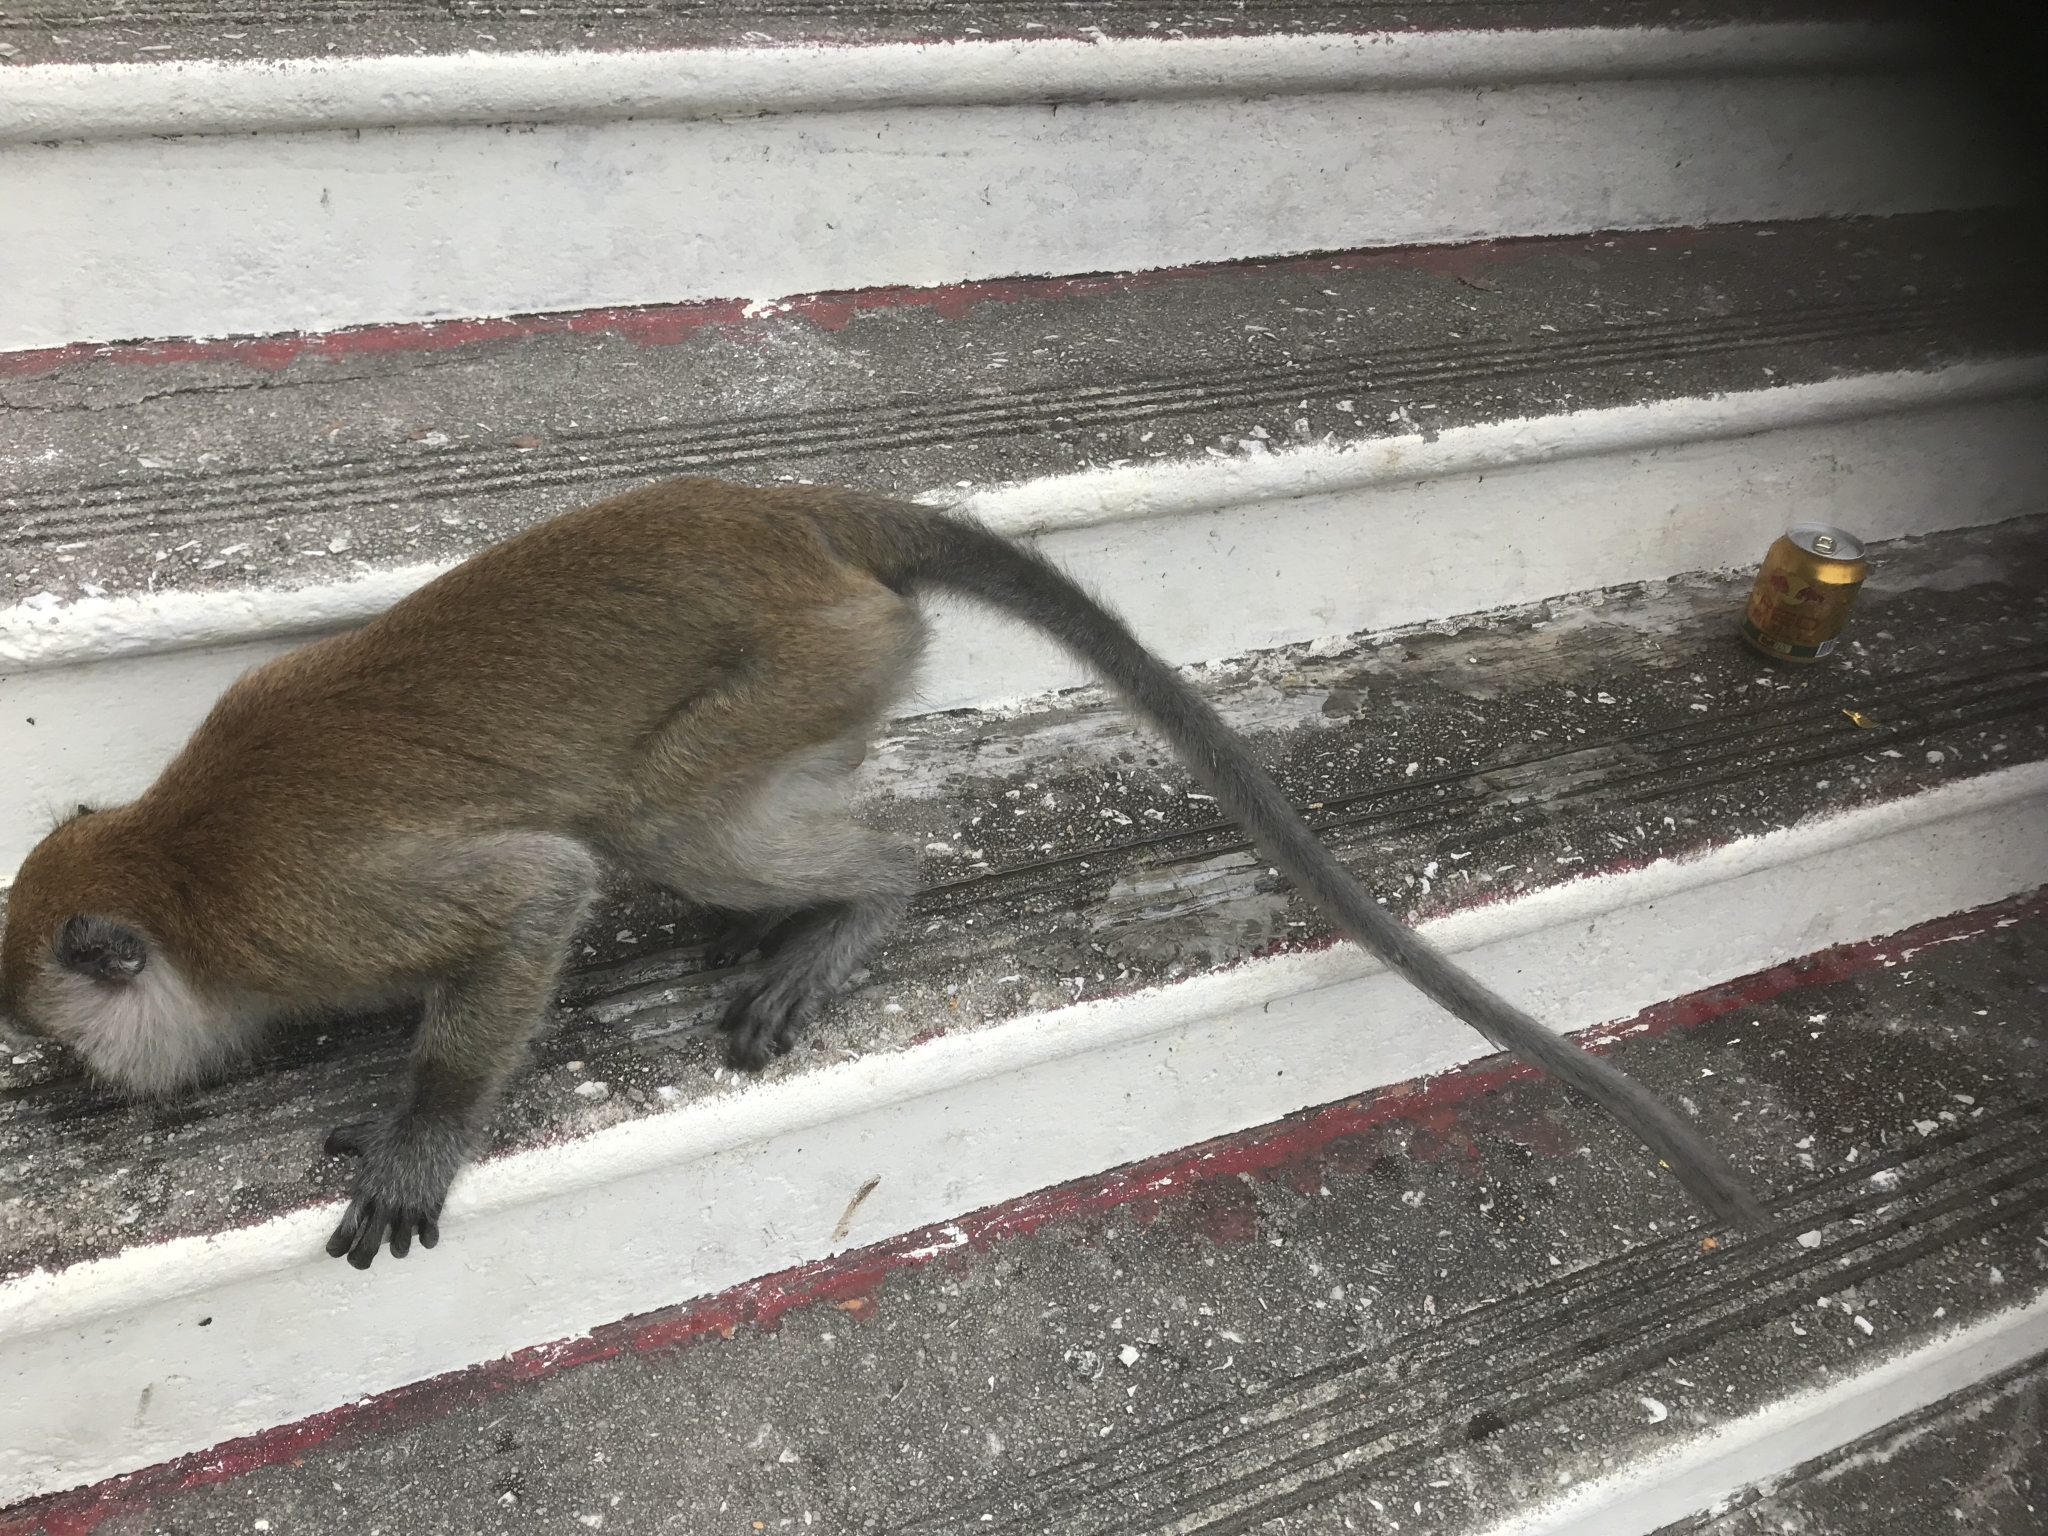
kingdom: Animalia
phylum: Chordata
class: Mammalia
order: Primates
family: Cercopithecidae
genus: Macaca
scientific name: Macaca fascicularis
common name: Crab-eating macaque
